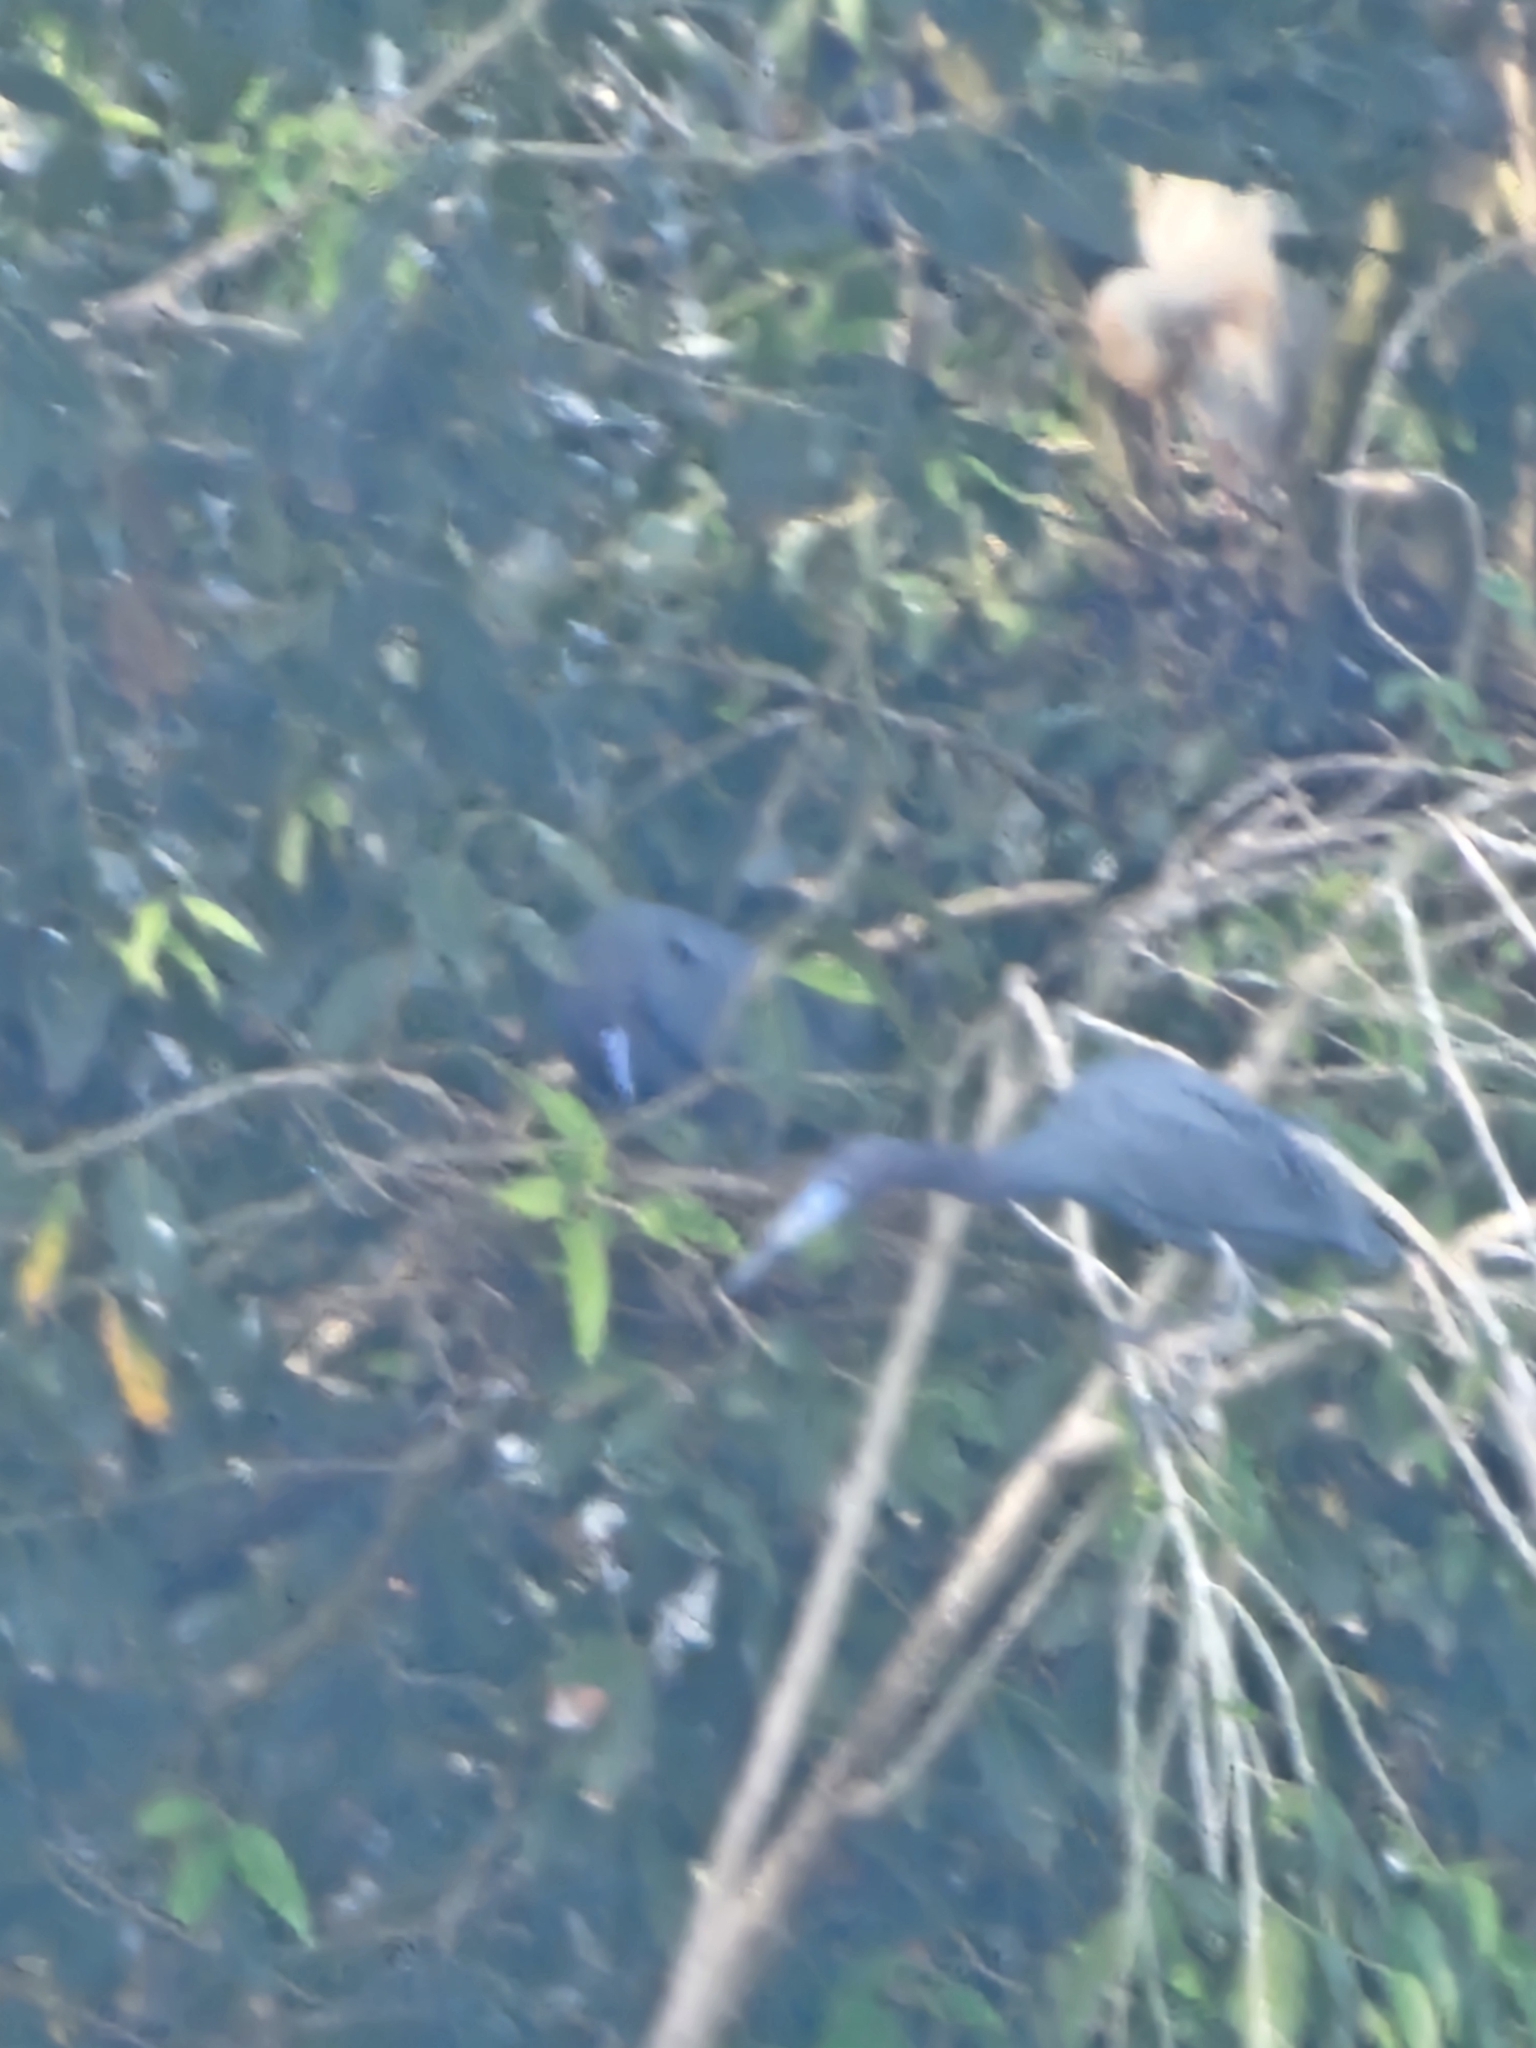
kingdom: Animalia
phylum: Chordata
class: Aves
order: Pelecaniformes
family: Ardeidae
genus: Egretta
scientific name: Egretta caerulea
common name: Little blue heron
